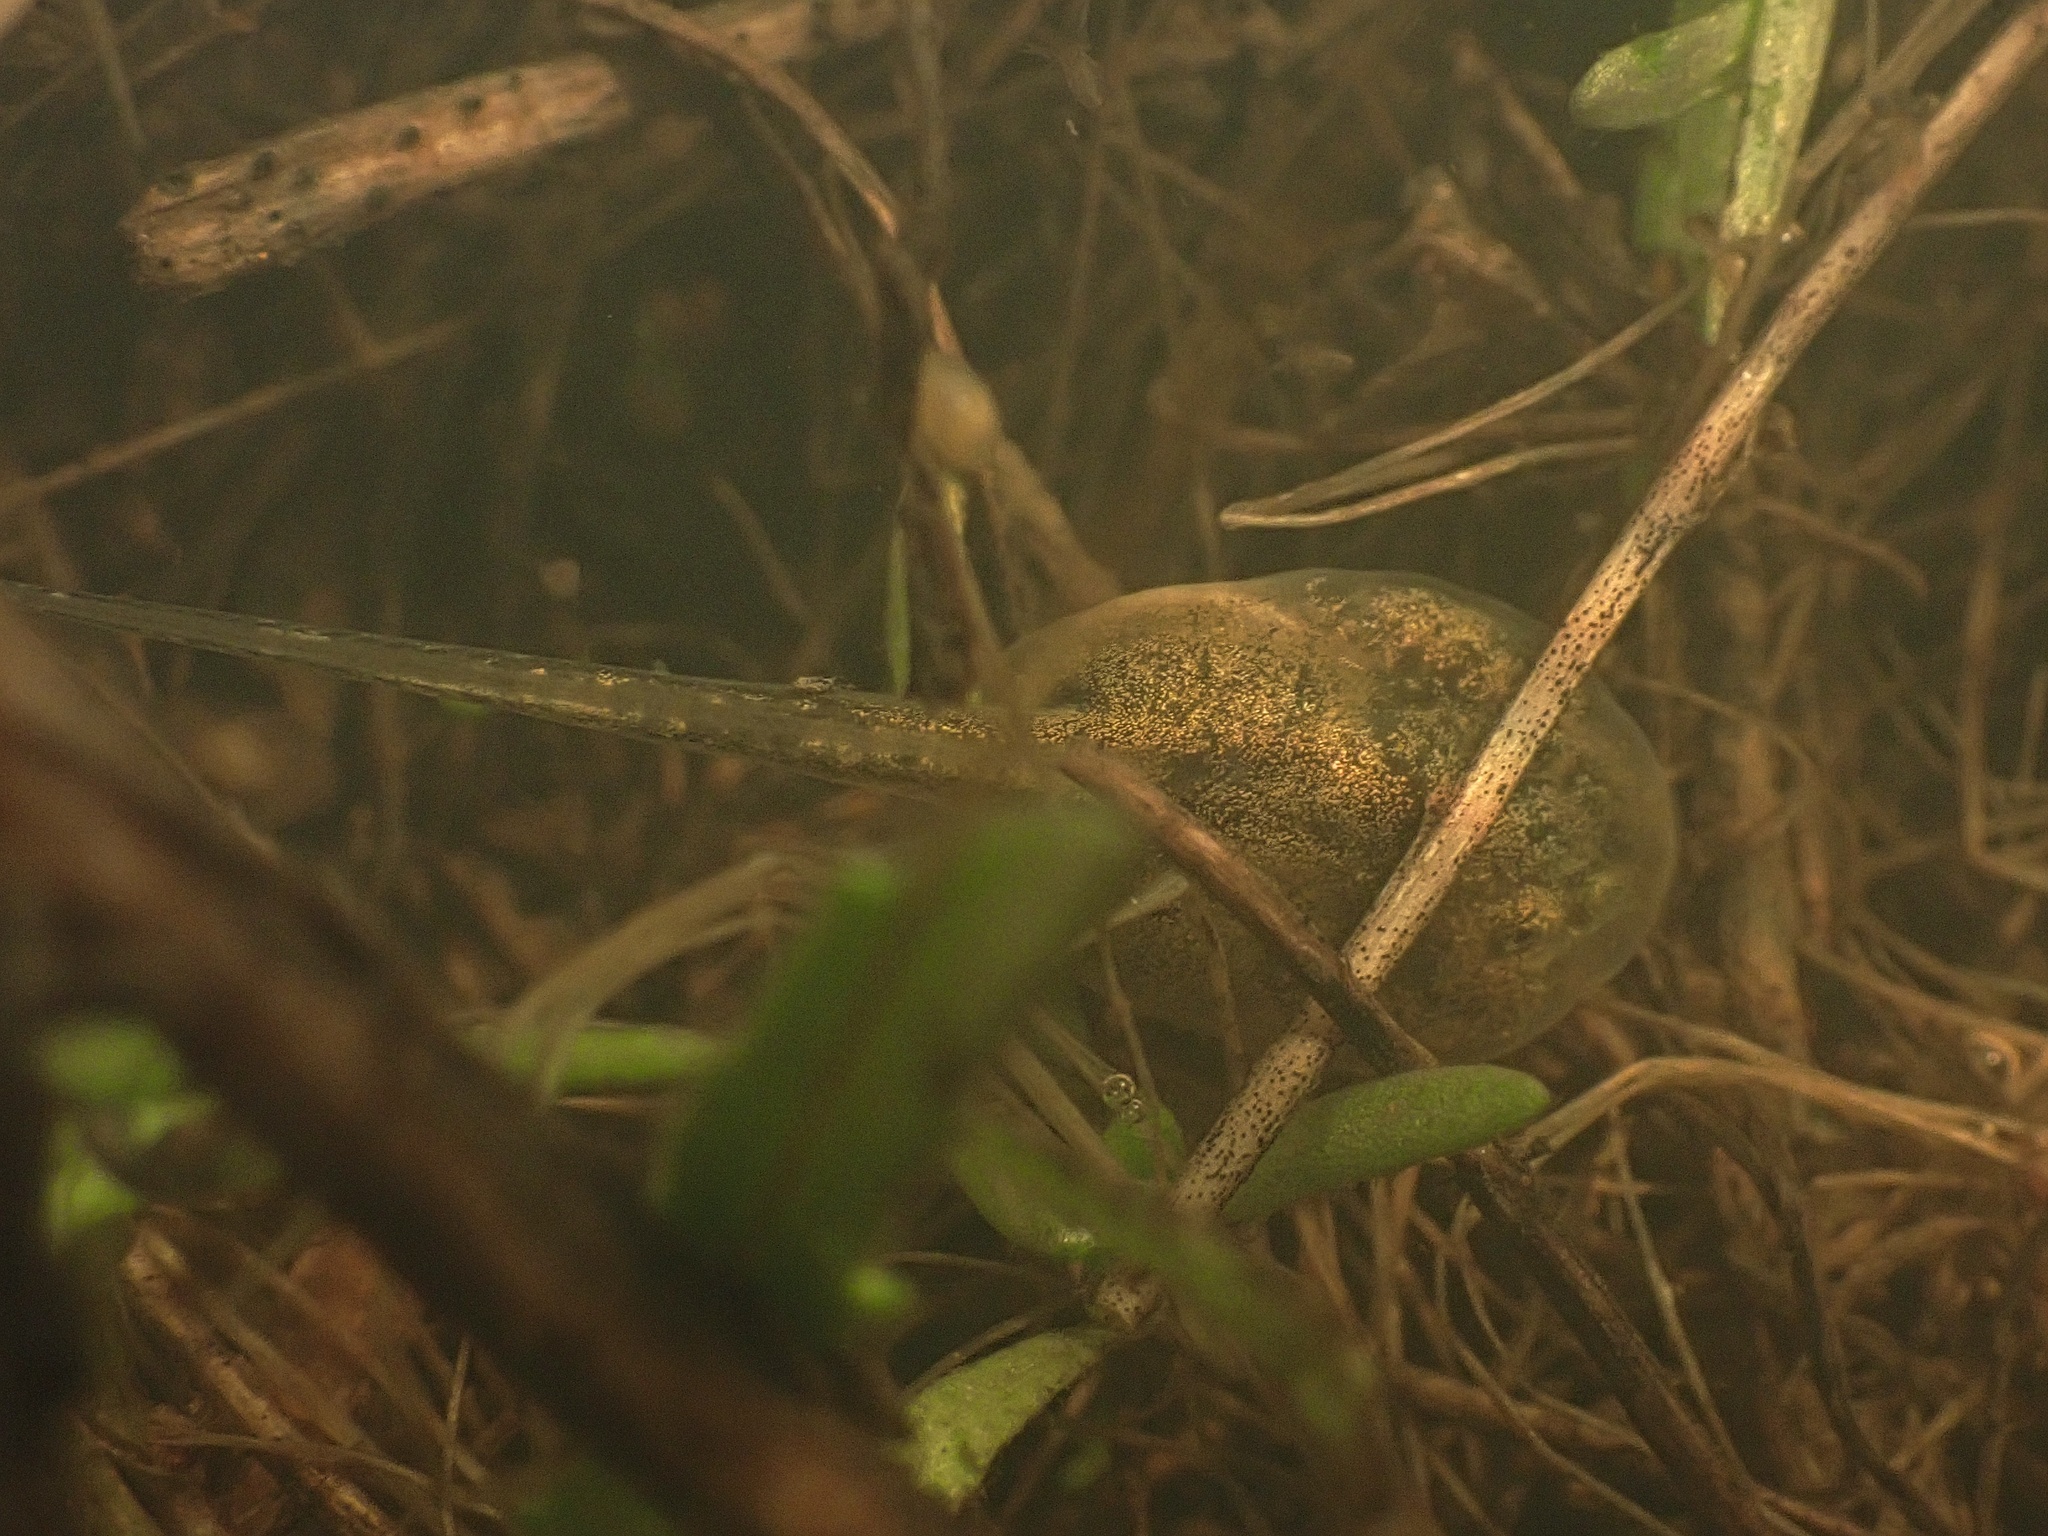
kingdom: Animalia
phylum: Chordata
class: Amphibia
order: Anura
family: Scaphiopodidae
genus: Spea
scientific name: Spea hammondii
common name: Western spadefoot toad
